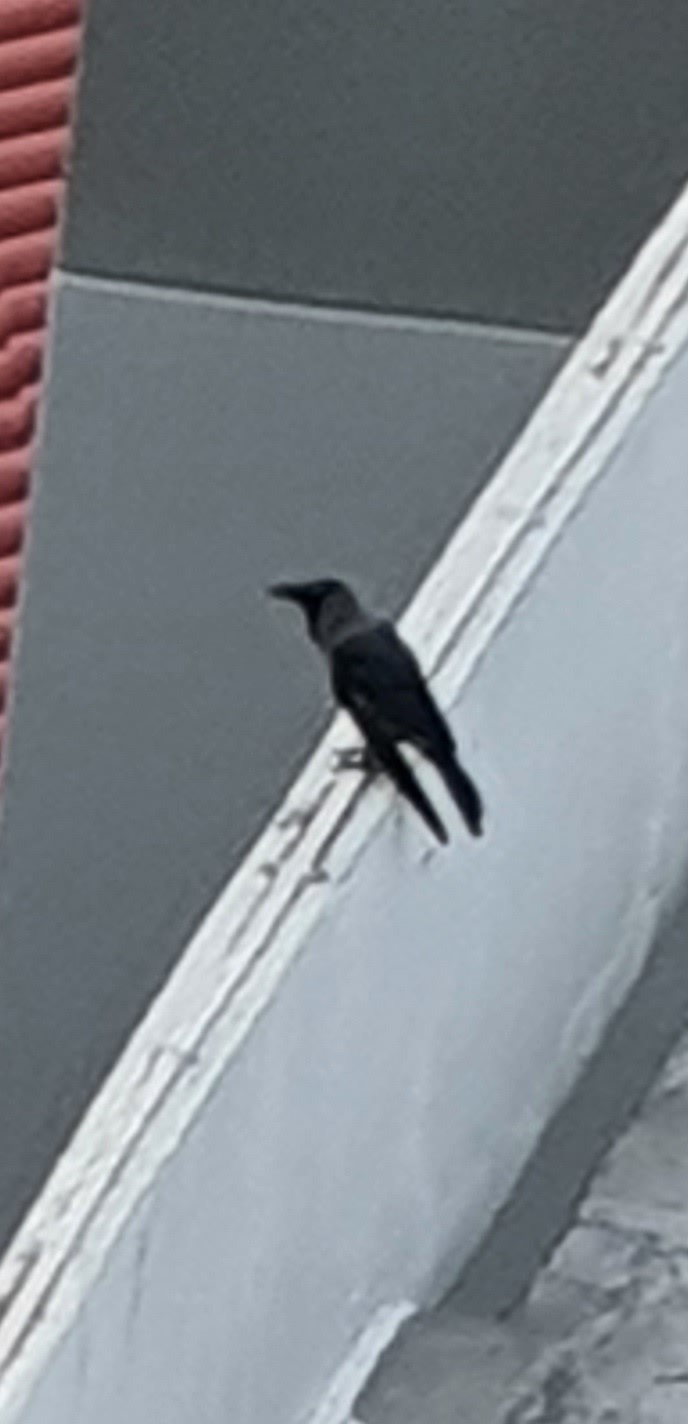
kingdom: Animalia
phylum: Chordata
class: Aves
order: Passeriformes
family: Corvidae
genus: Corvus
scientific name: Corvus splendens
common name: House crow
